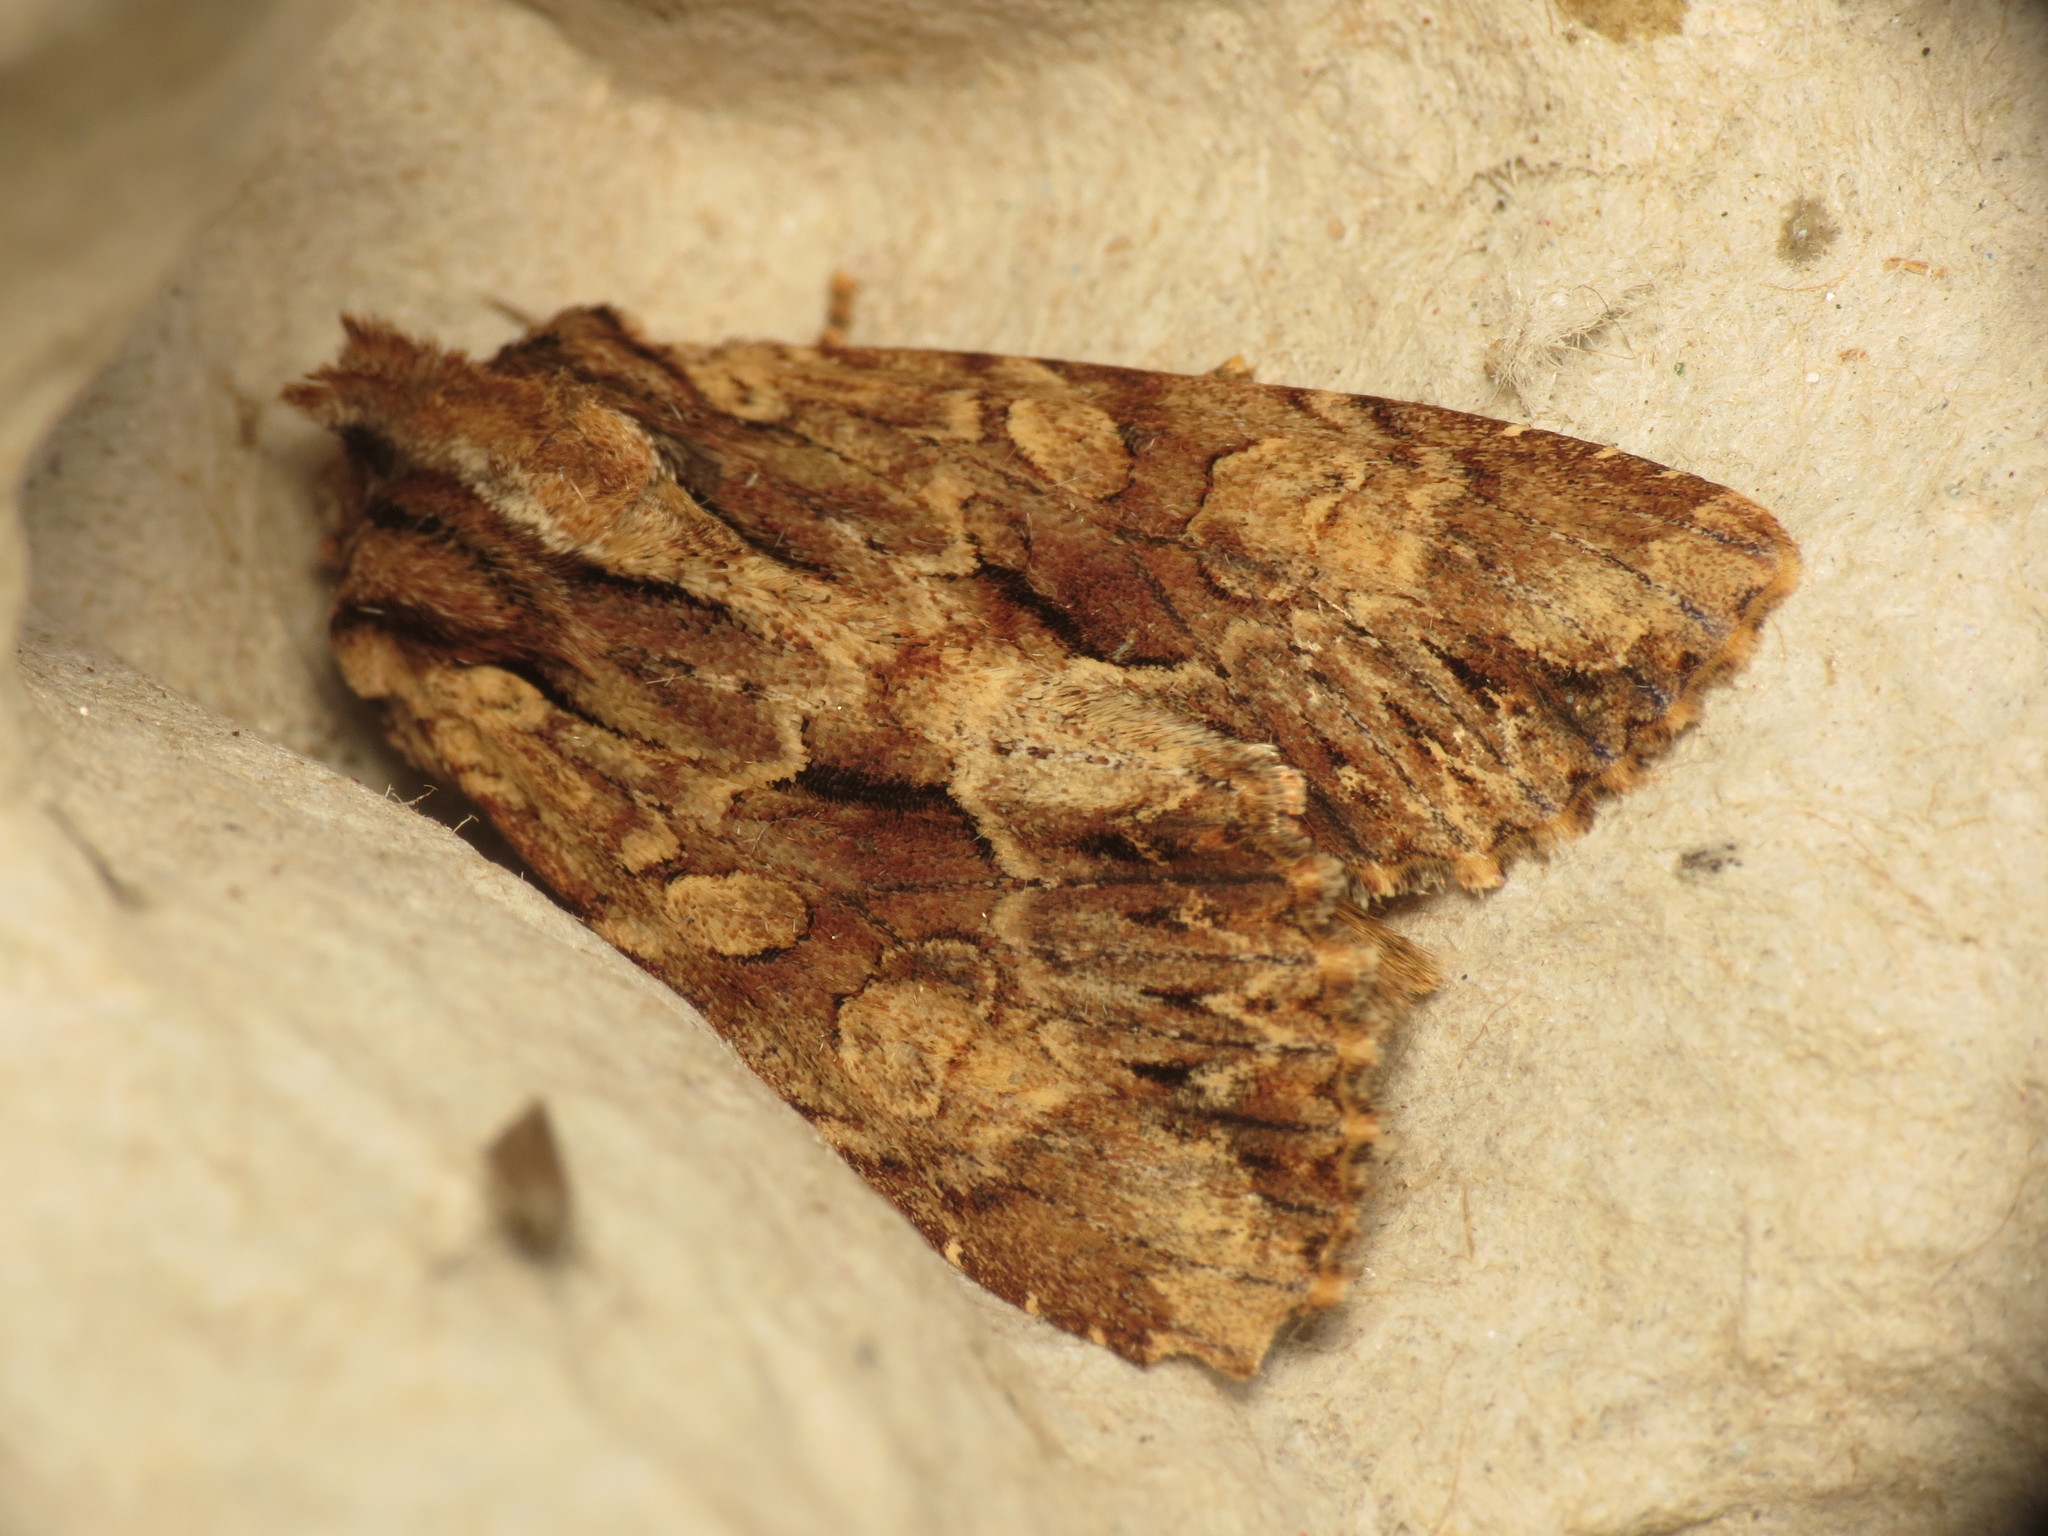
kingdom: Animalia
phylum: Arthropoda
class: Insecta
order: Lepidoptera
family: Noctuidae
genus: Apamea
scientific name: Apamea monoglypha
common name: Dark arches
